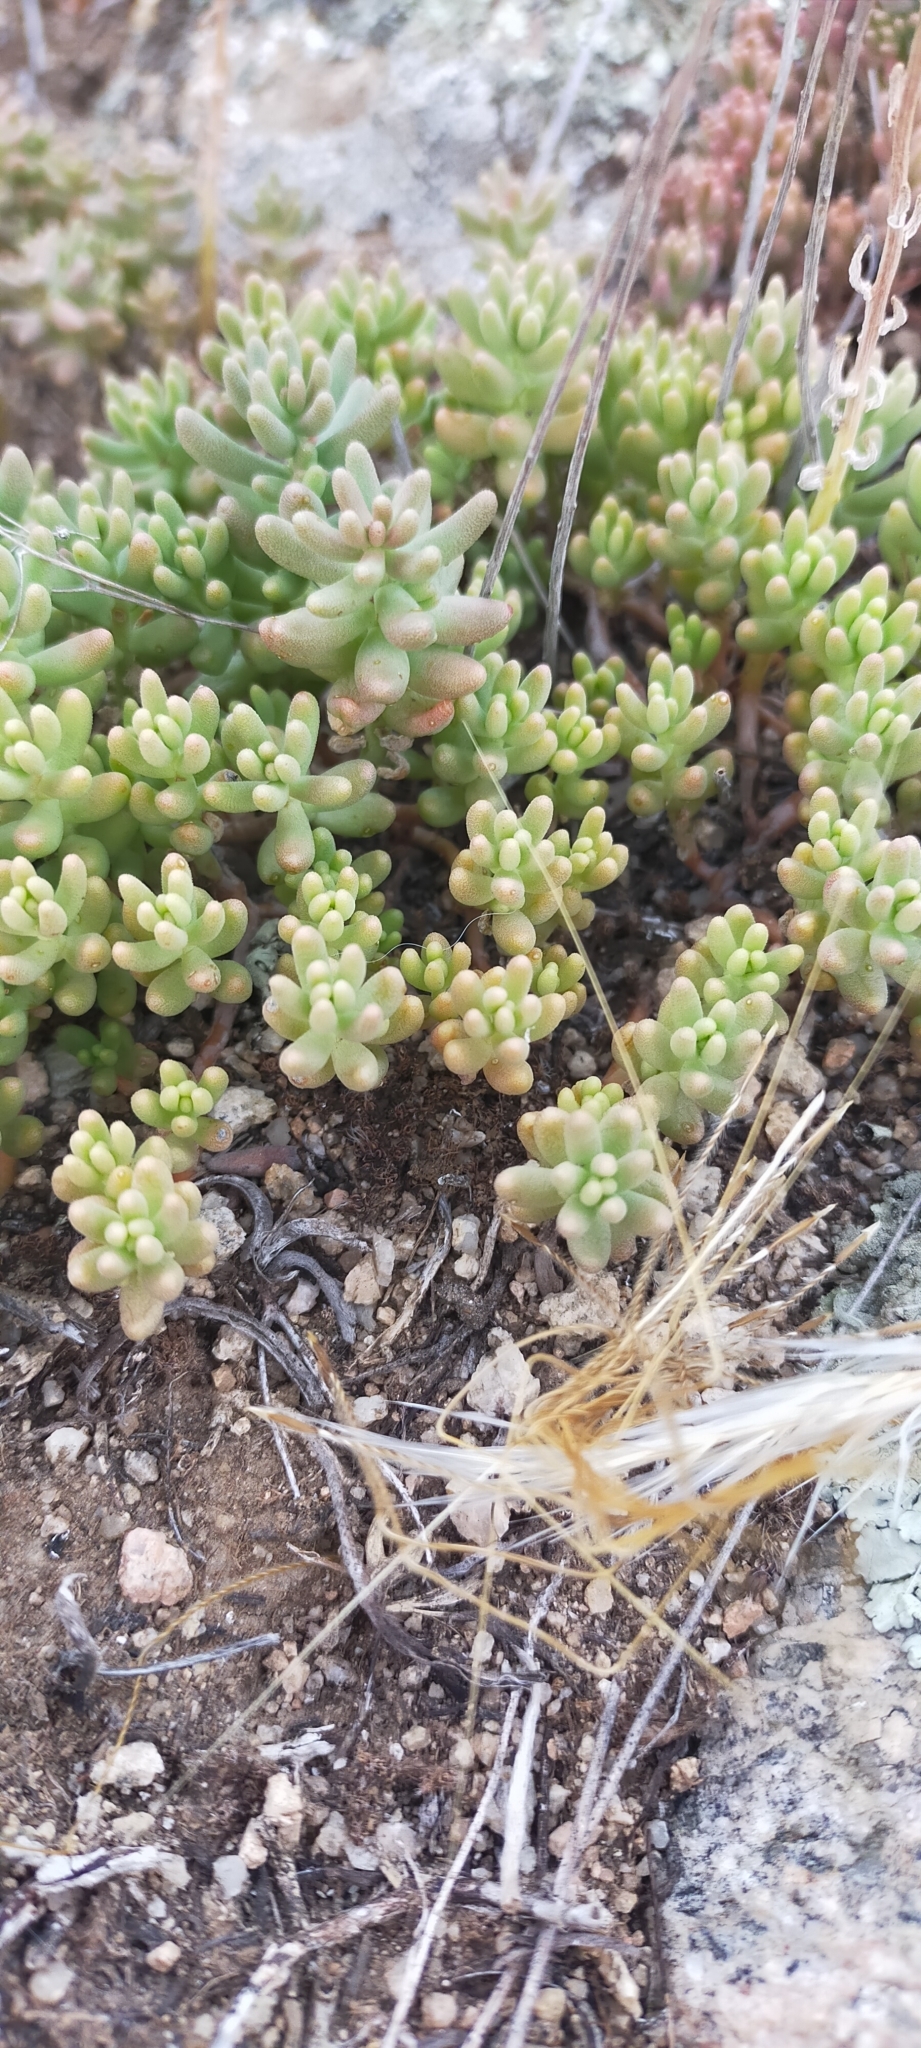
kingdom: Plantae
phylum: Tracheophyta
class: Magnoliopsida
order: Saxifragales
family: Crassulaceae
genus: Sedum
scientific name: Sedum album
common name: White stonecrop
